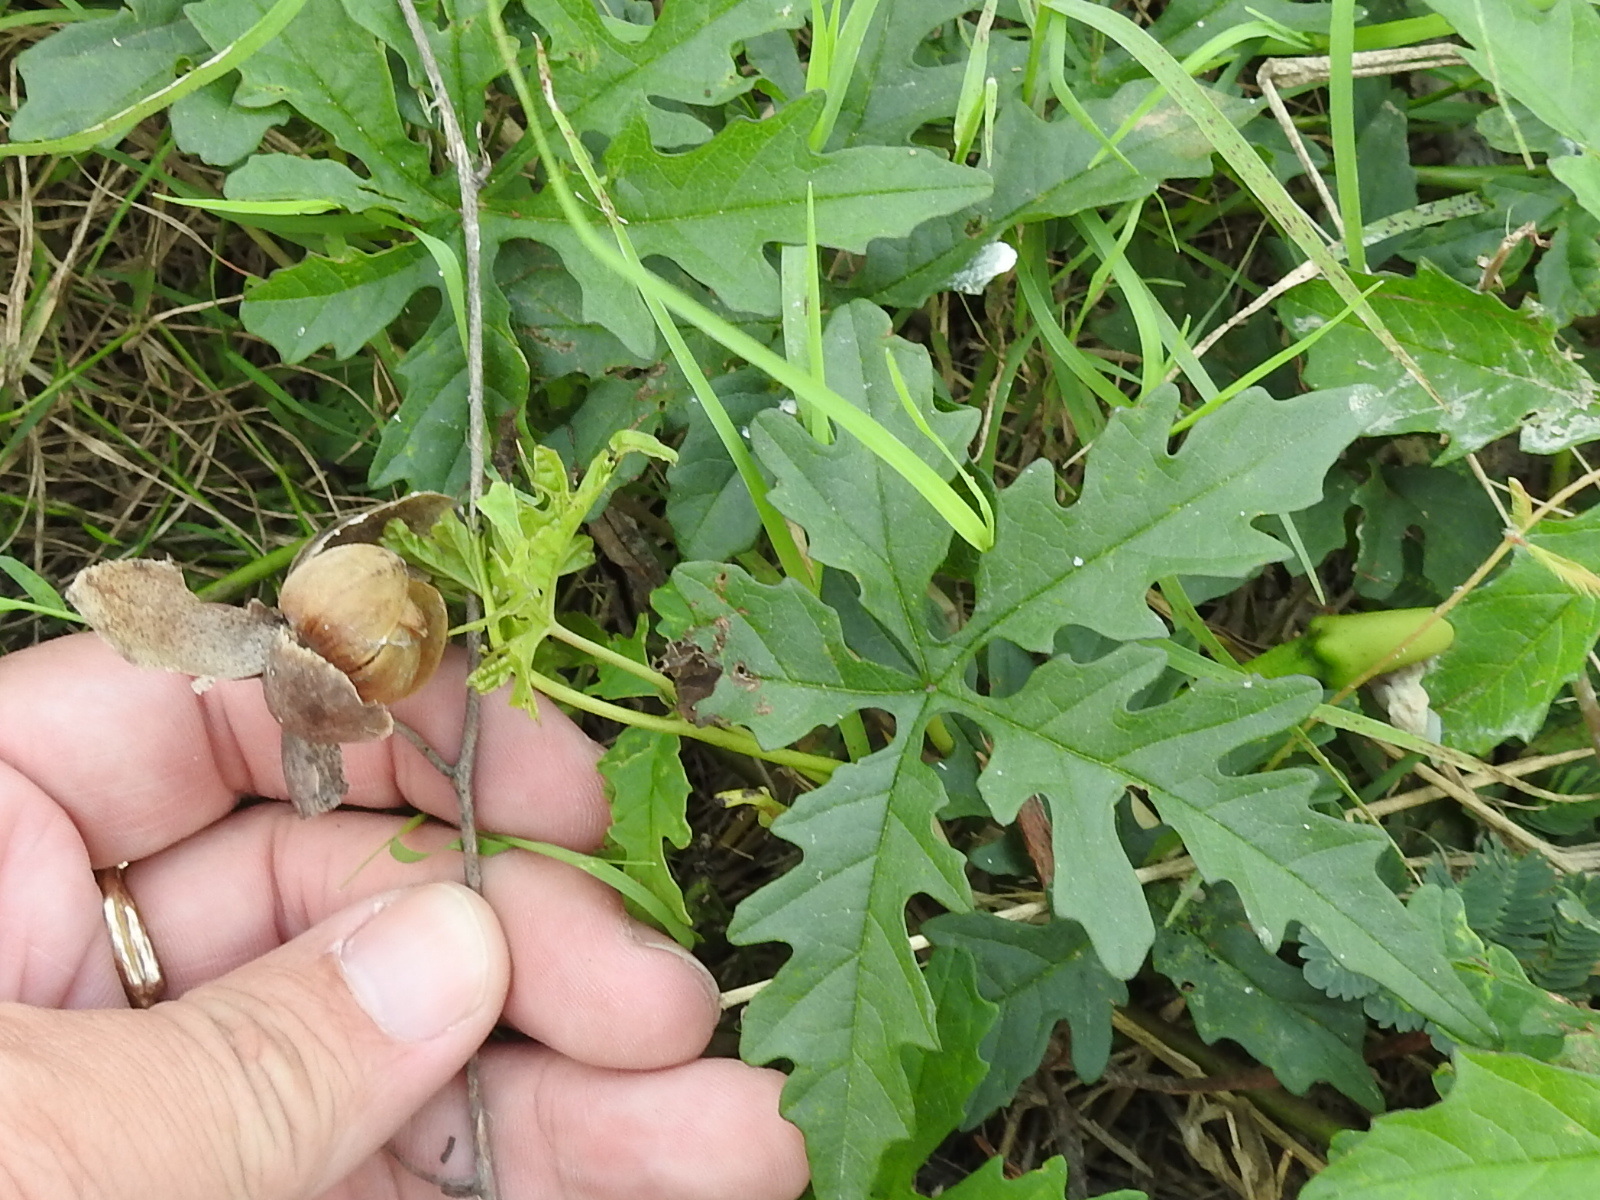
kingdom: Plantae
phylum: Tracheophyta
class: Magnoliopsida
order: Solanales
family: Convolvulaceae
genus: Distimake
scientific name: Distimake dissectus
